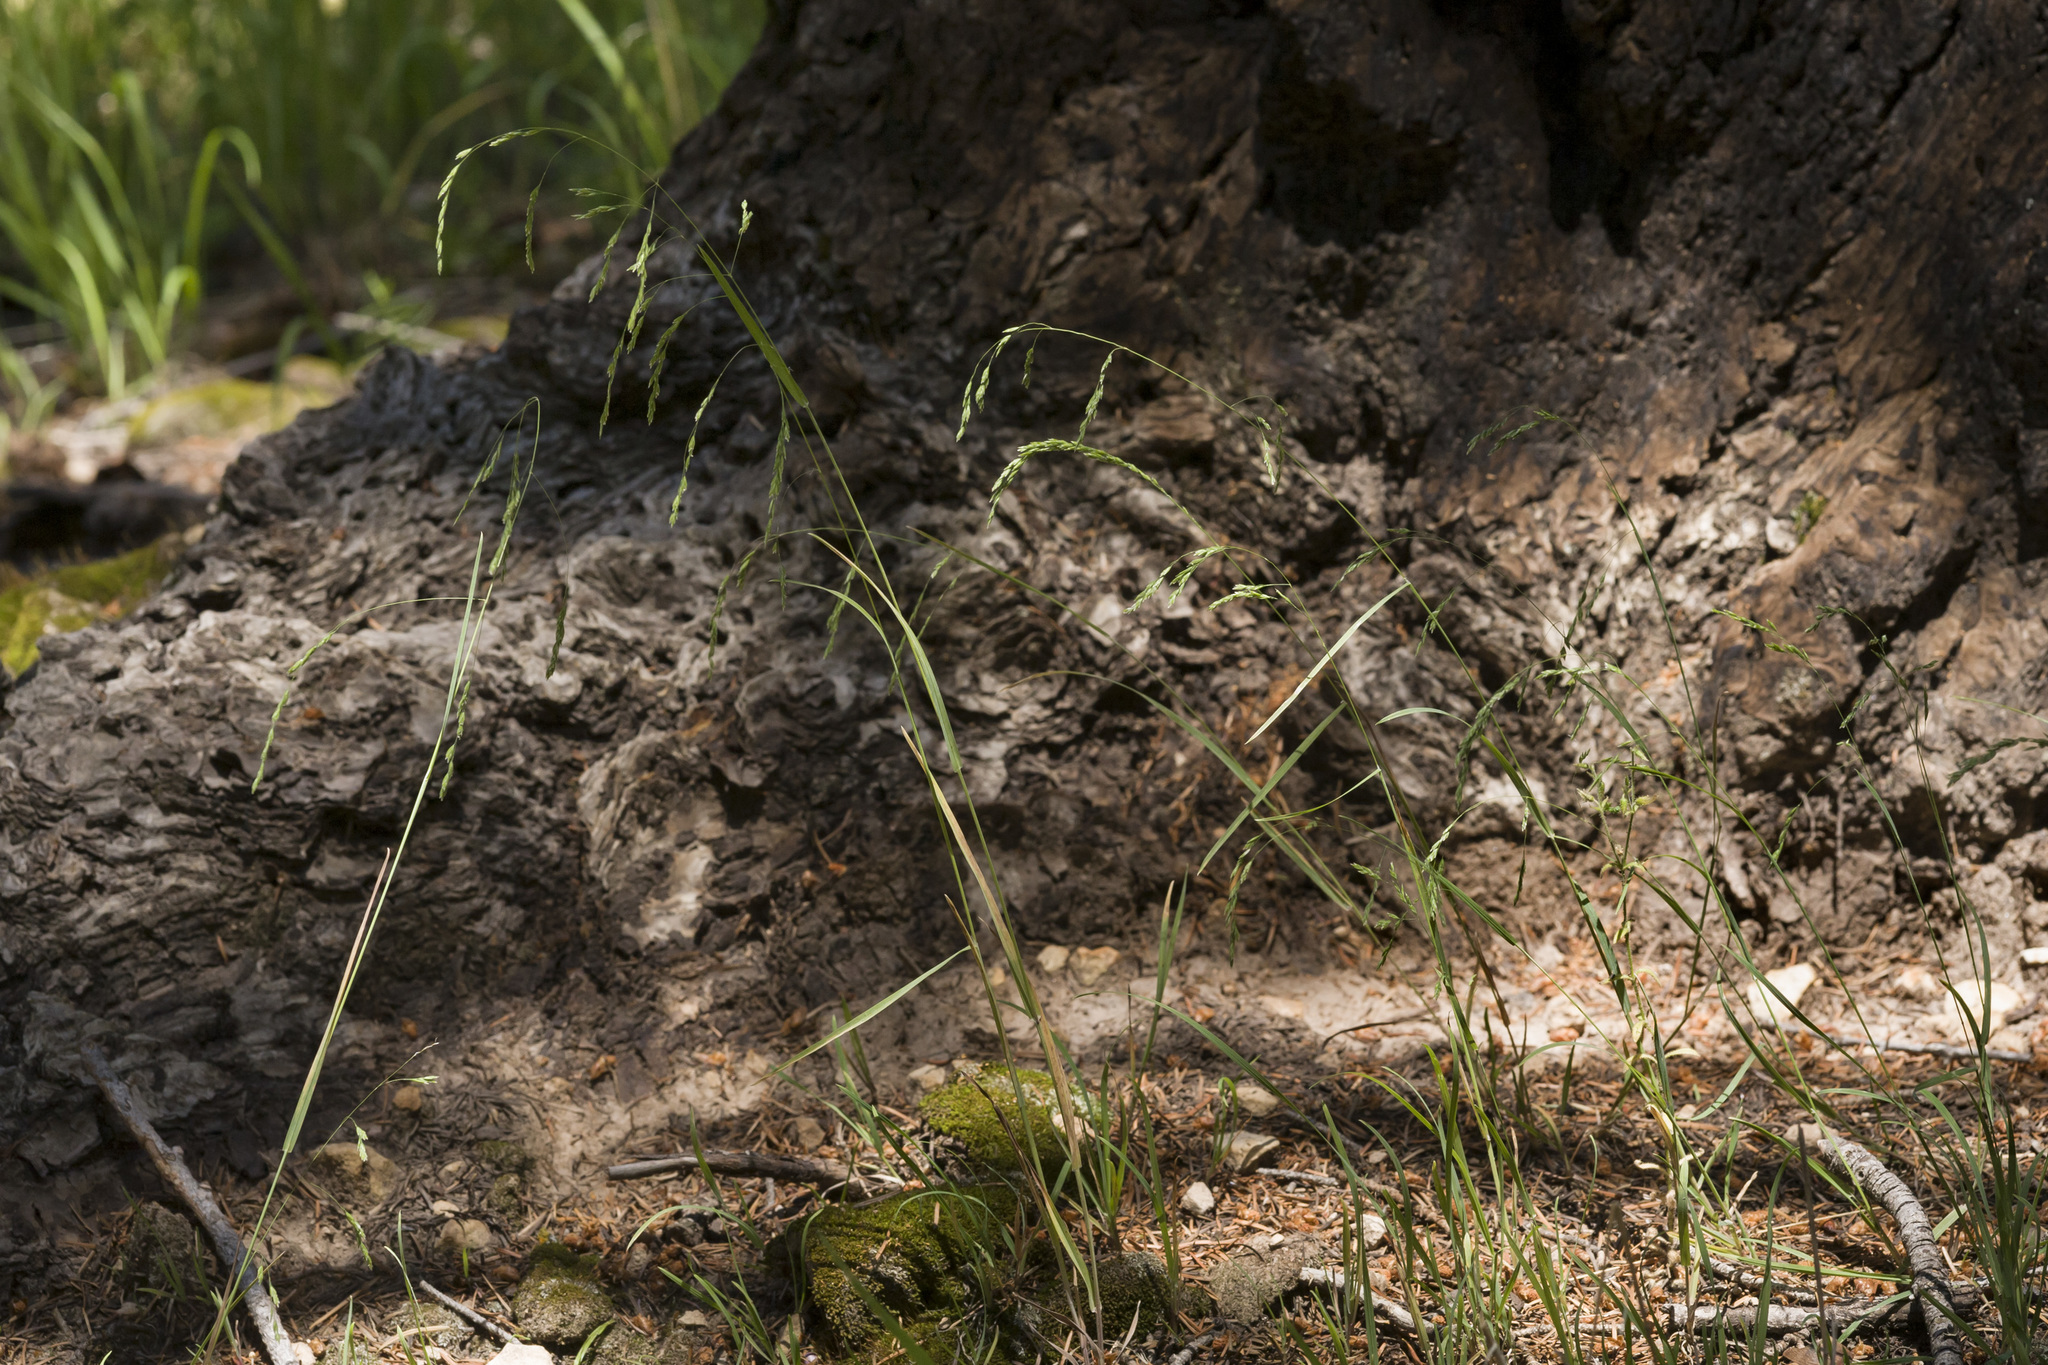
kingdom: Plantae
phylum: Tracheophyta
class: Liliopsida
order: Poales
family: Poaceae
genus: Poa
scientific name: Poa palustris
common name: Swamp meadow-grass
